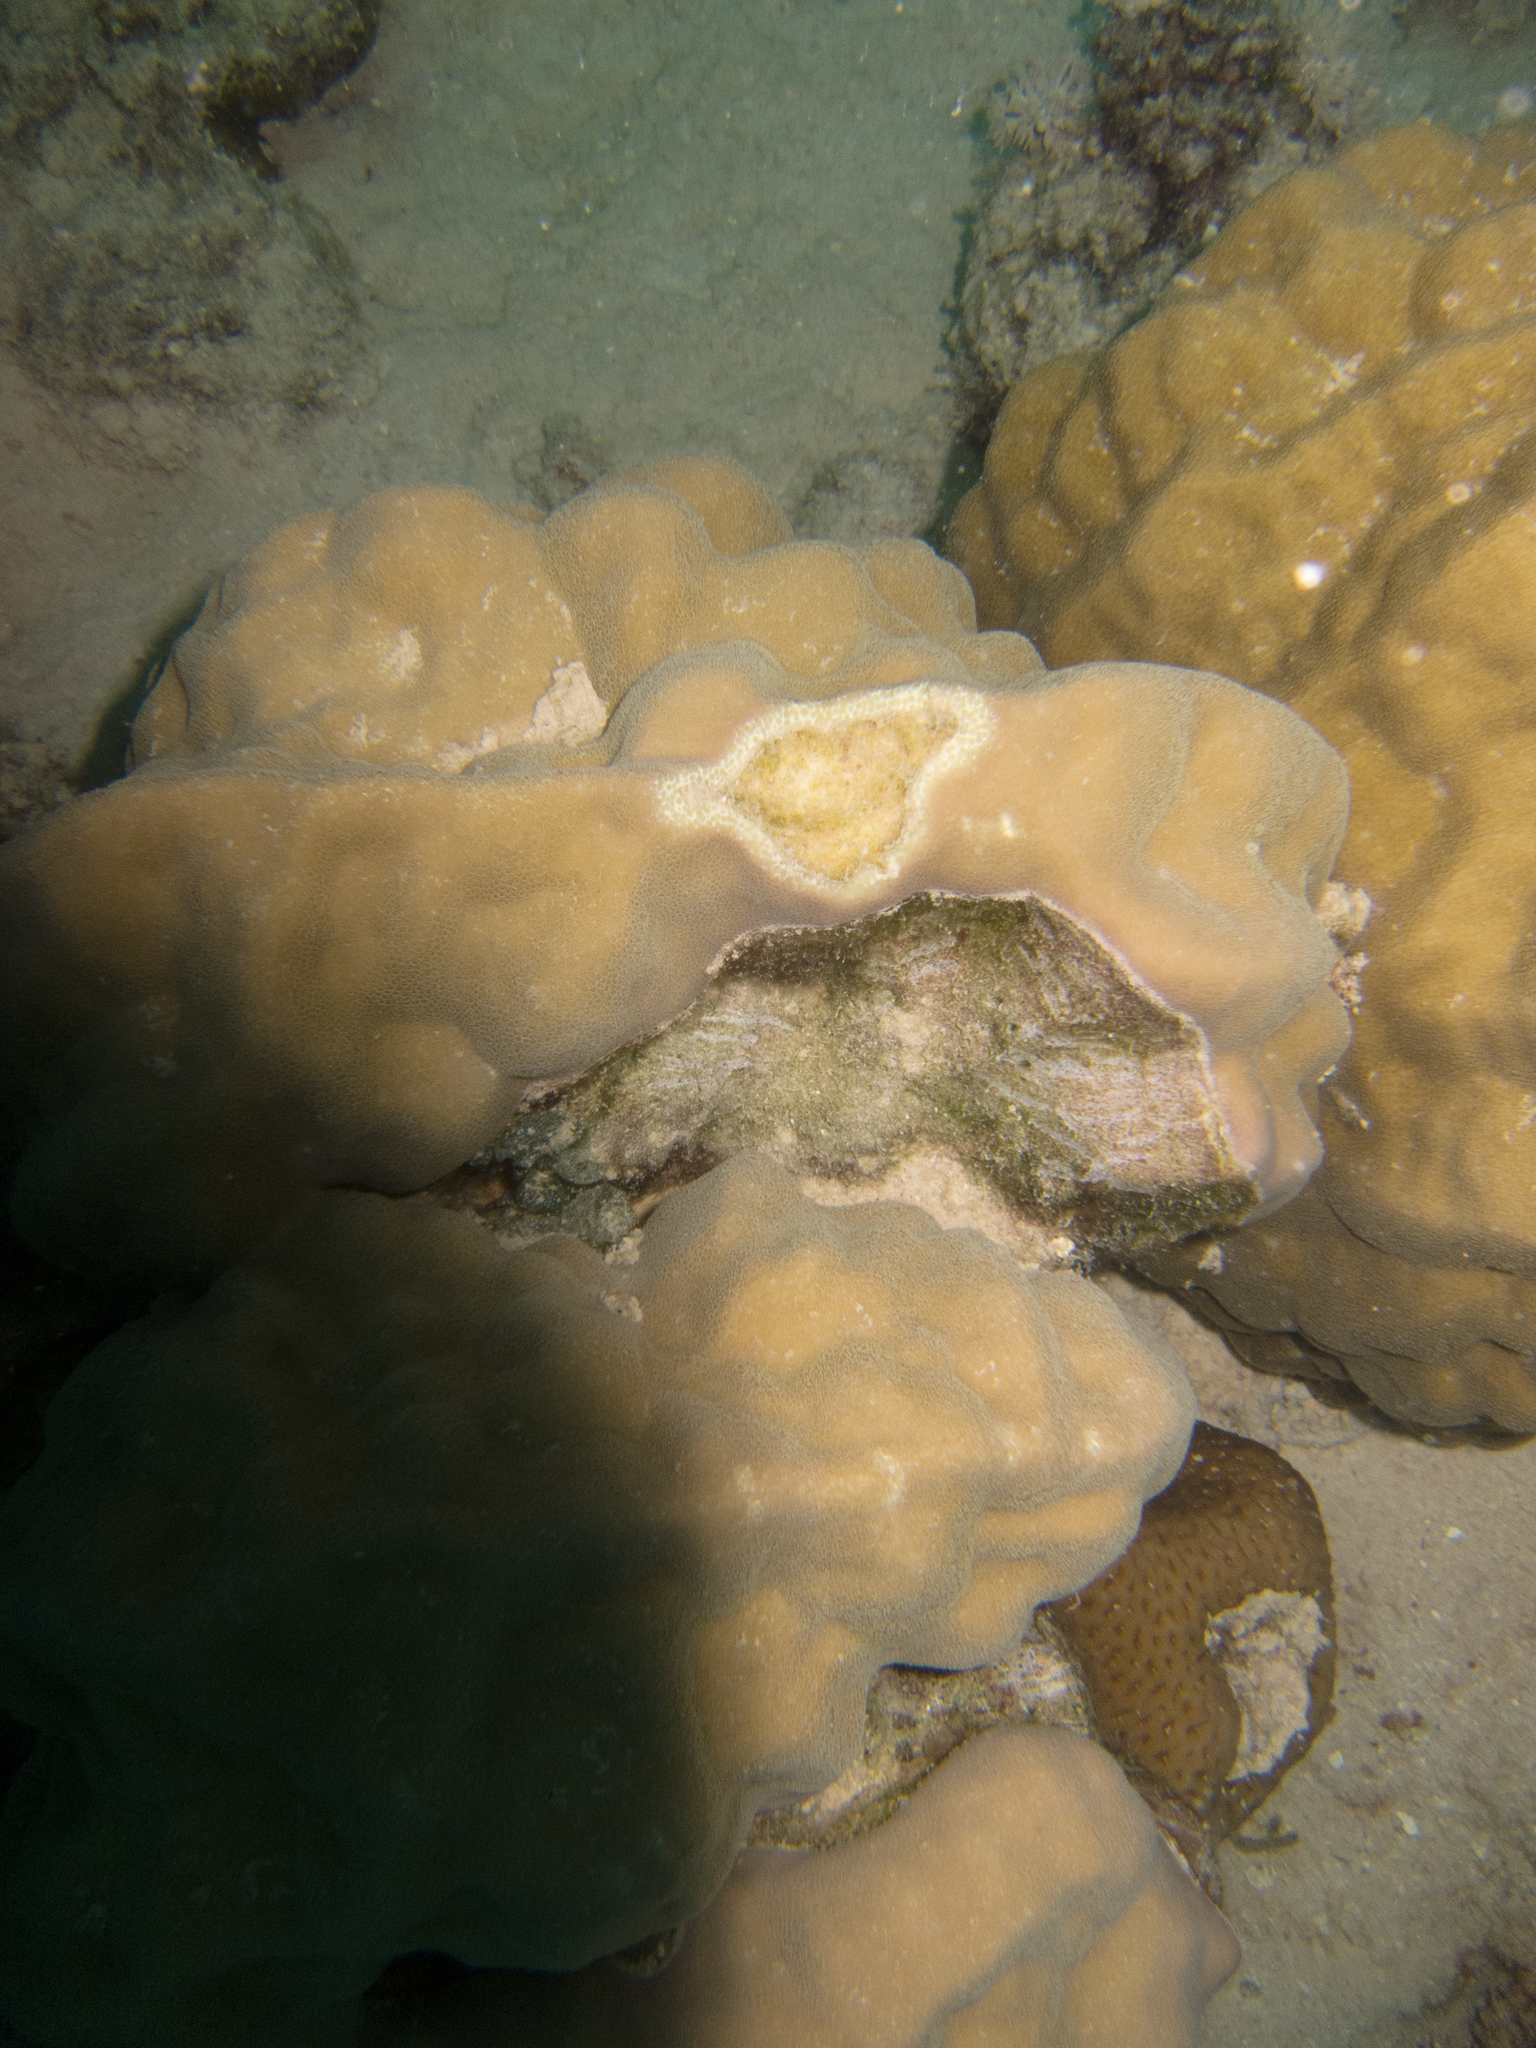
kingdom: Animalia
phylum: Cnidaria
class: Anthozoa
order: Scleractinia
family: Poritidae
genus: Porites
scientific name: Porites
